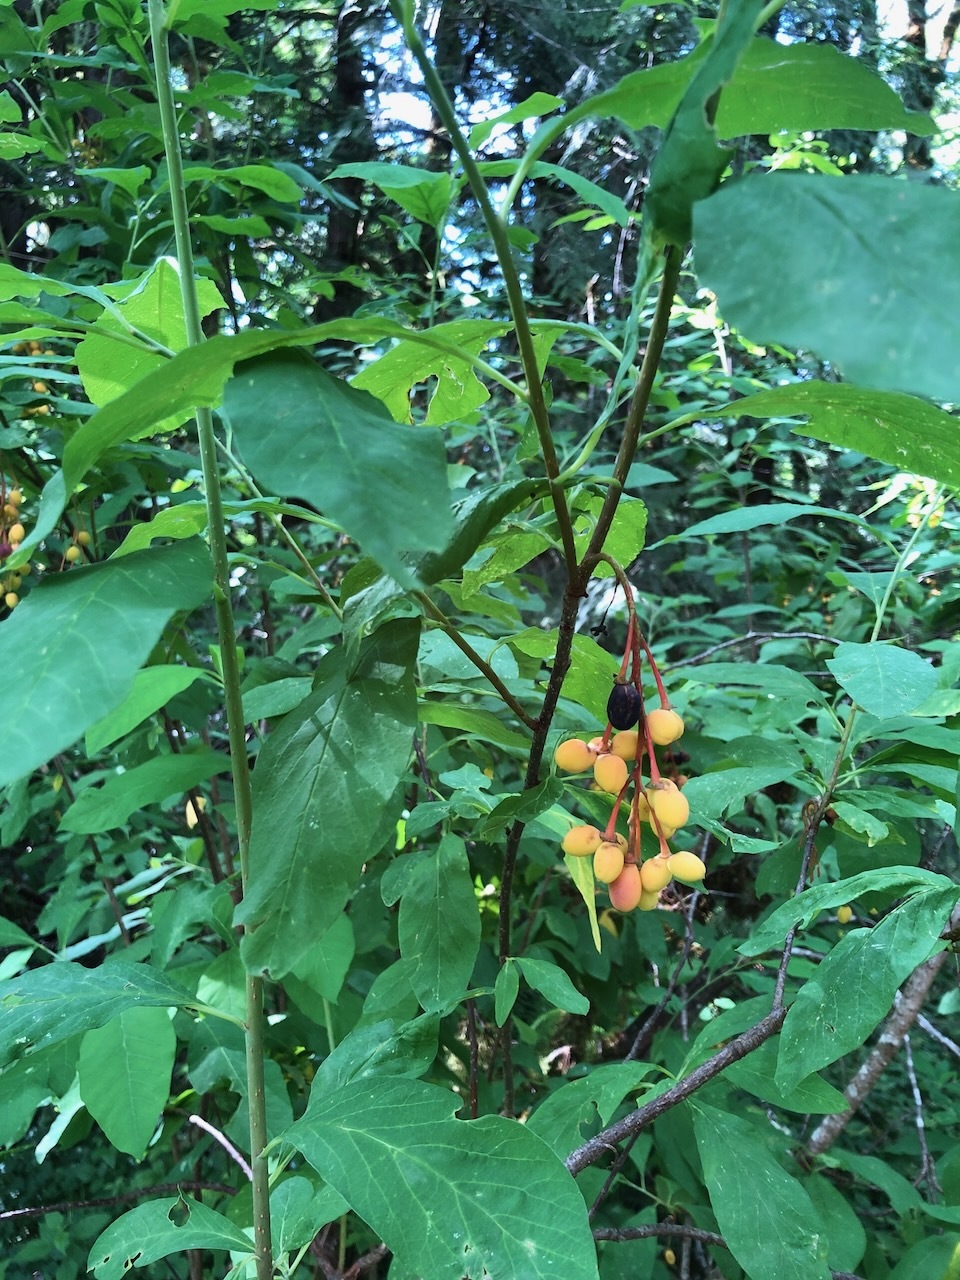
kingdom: Plantae
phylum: Tracheophyta
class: Magnoliopsida
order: Rosales
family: Rosaceae
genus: Oemleria
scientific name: Oemleria cerasiformis
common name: Osoberry
